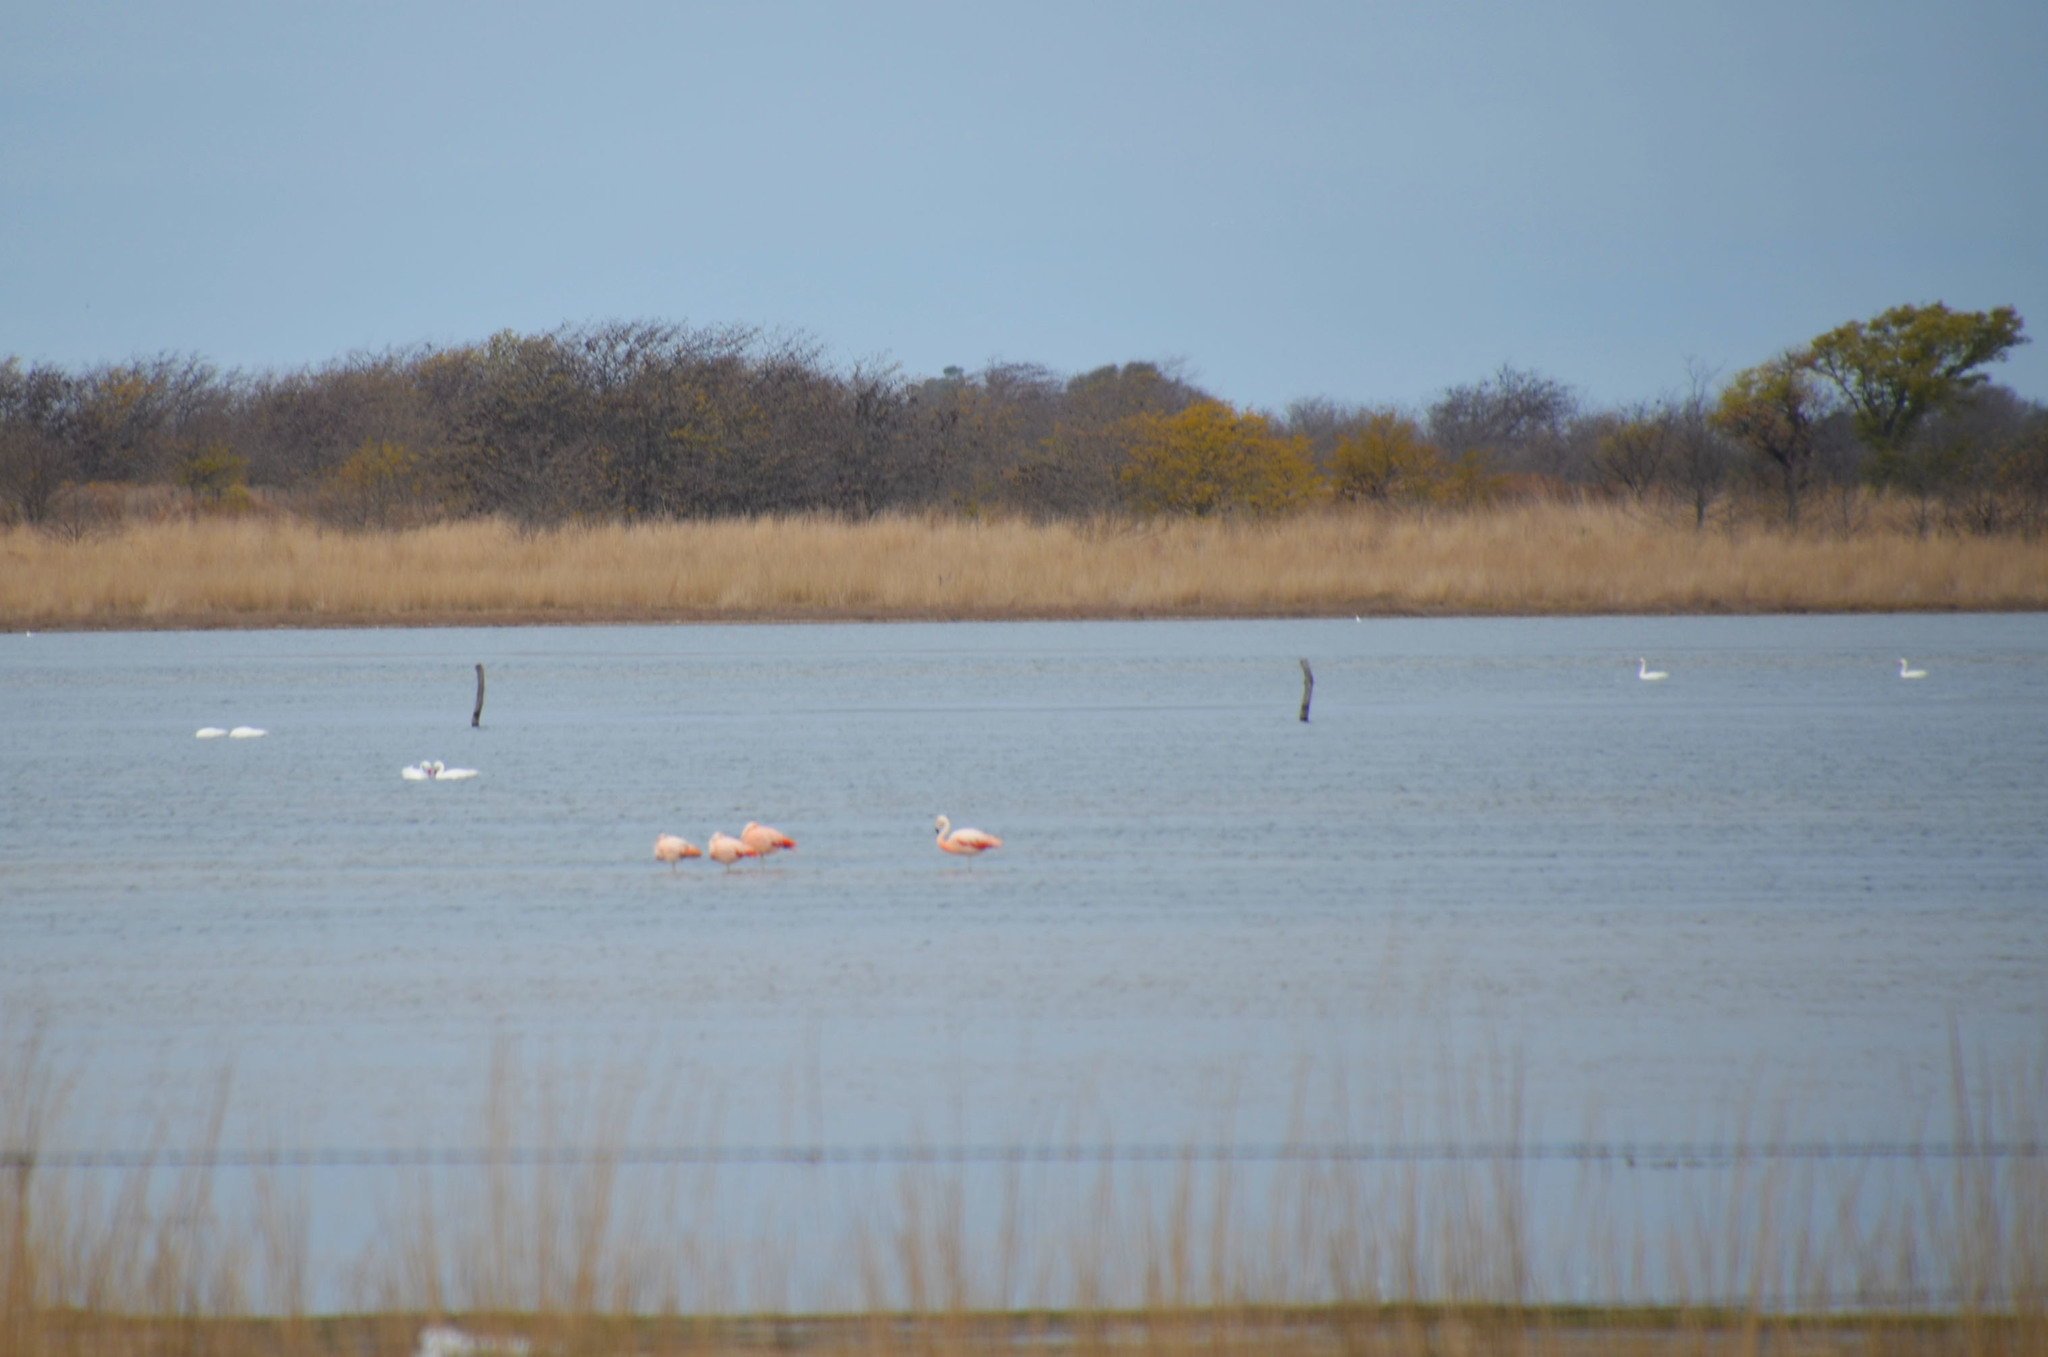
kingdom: Animalia
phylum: Chordata
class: Aves
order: Phoenicopteriformes
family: Phoenicopteridae
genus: Phoenicopterus
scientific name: Phoenicopterus chilensis
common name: Chilean flamingo
